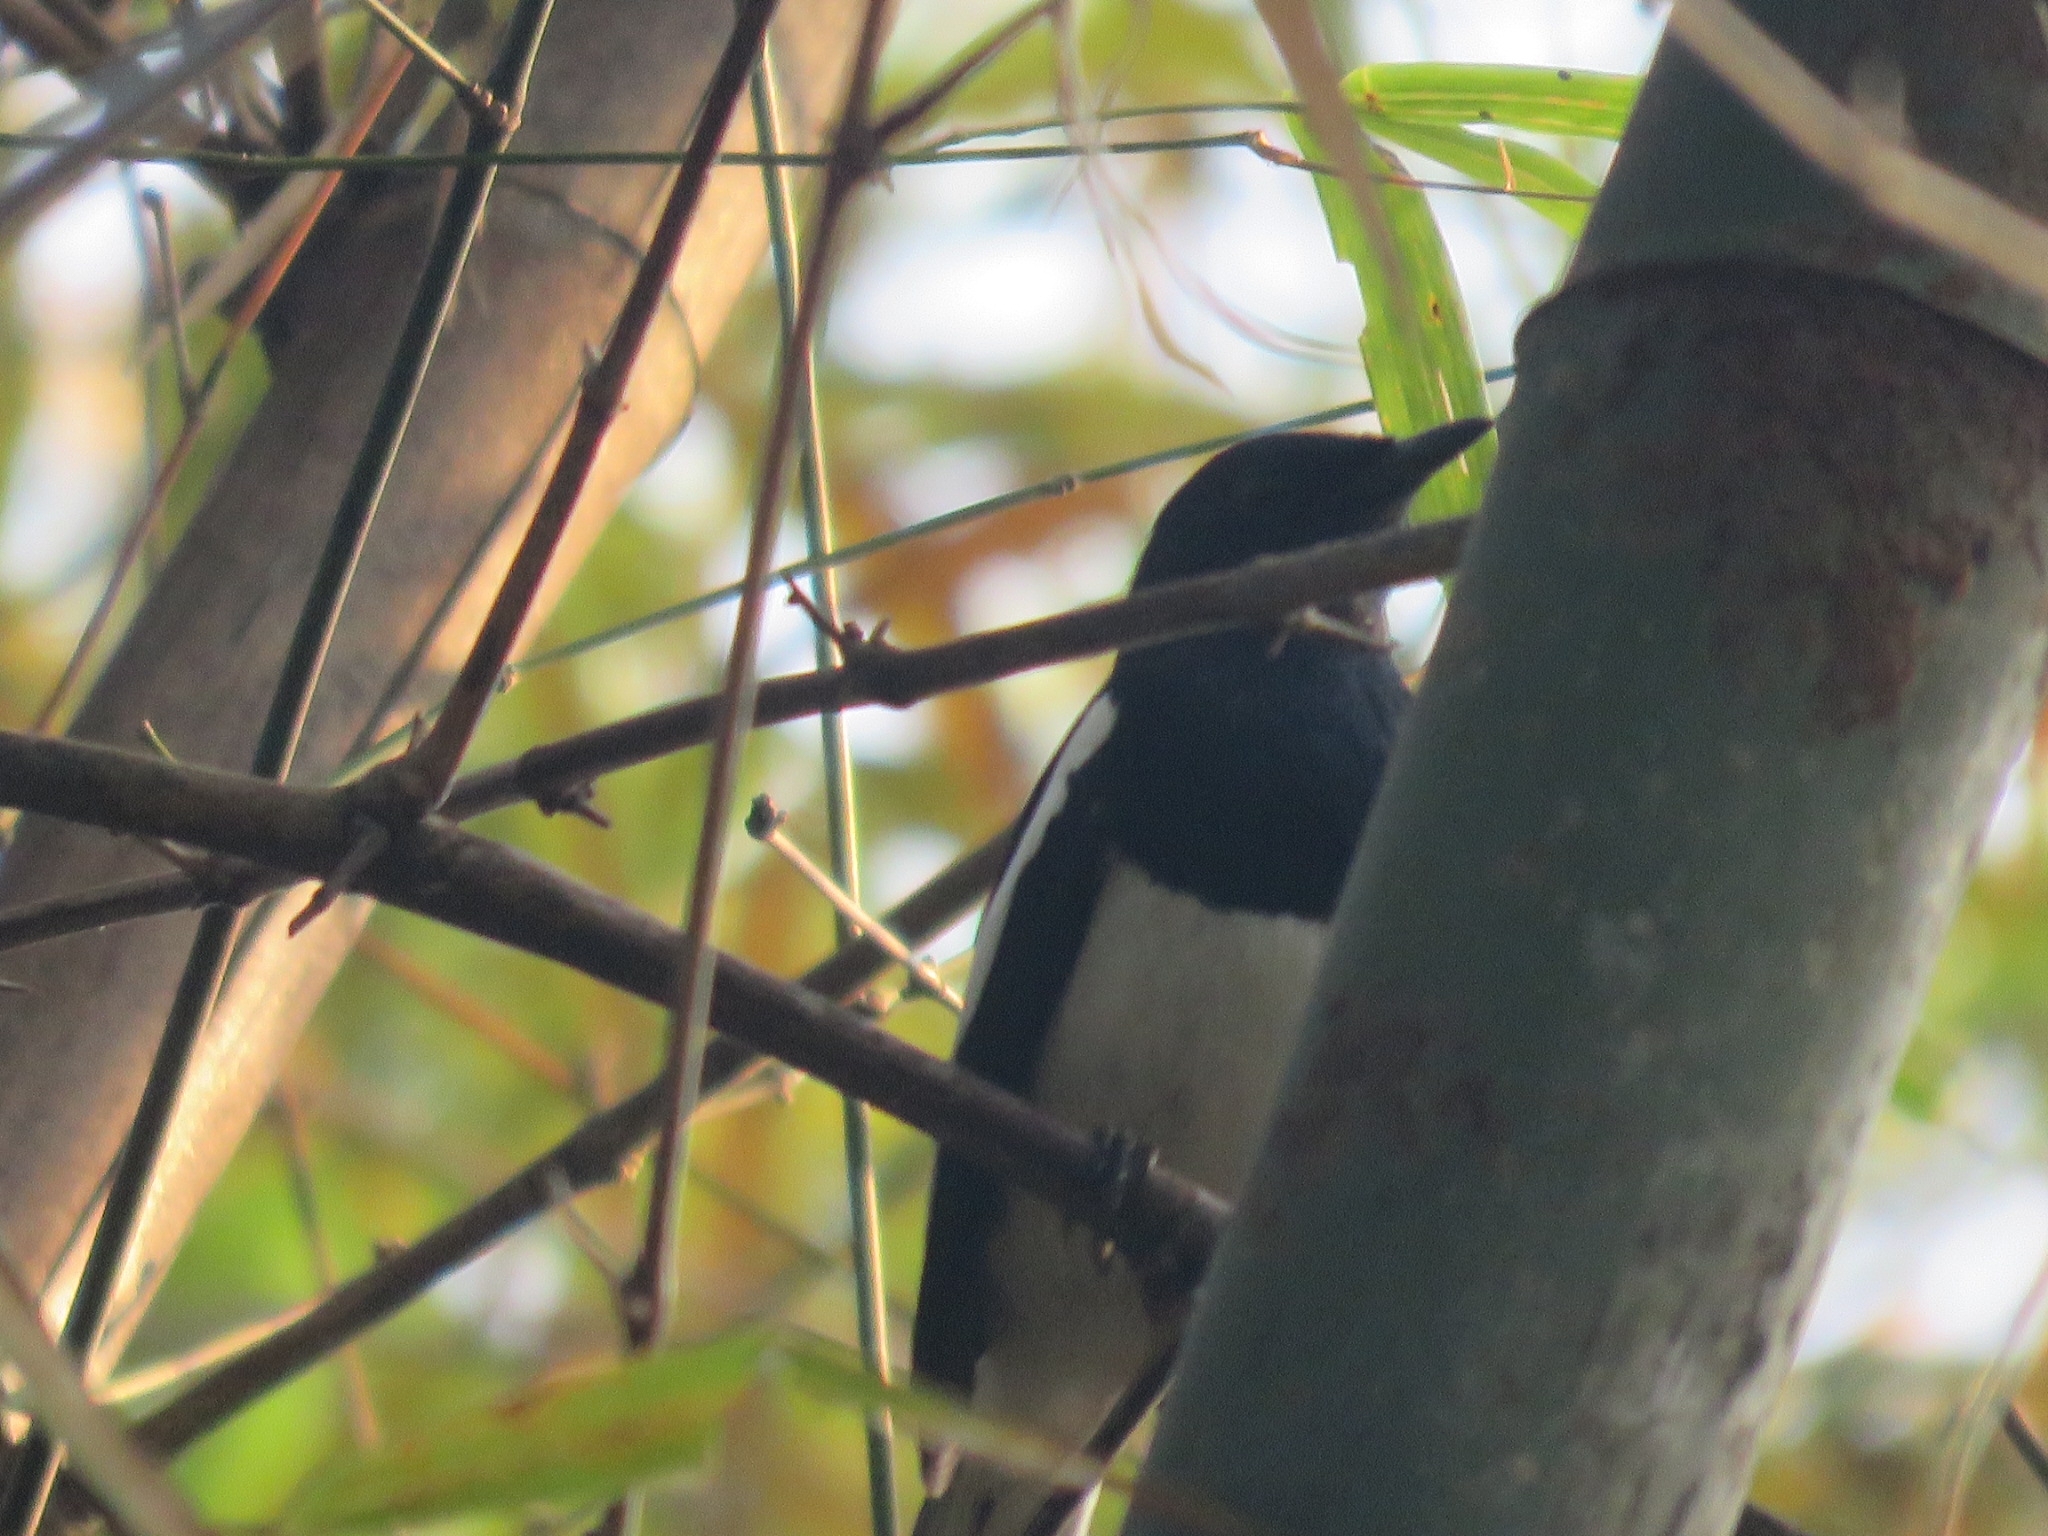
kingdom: Animalia
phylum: Chordata
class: Aves
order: Passeriformes
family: Muscicapidae
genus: Copsychus
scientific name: Copsychus saularis
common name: Oriental magpie-robin
